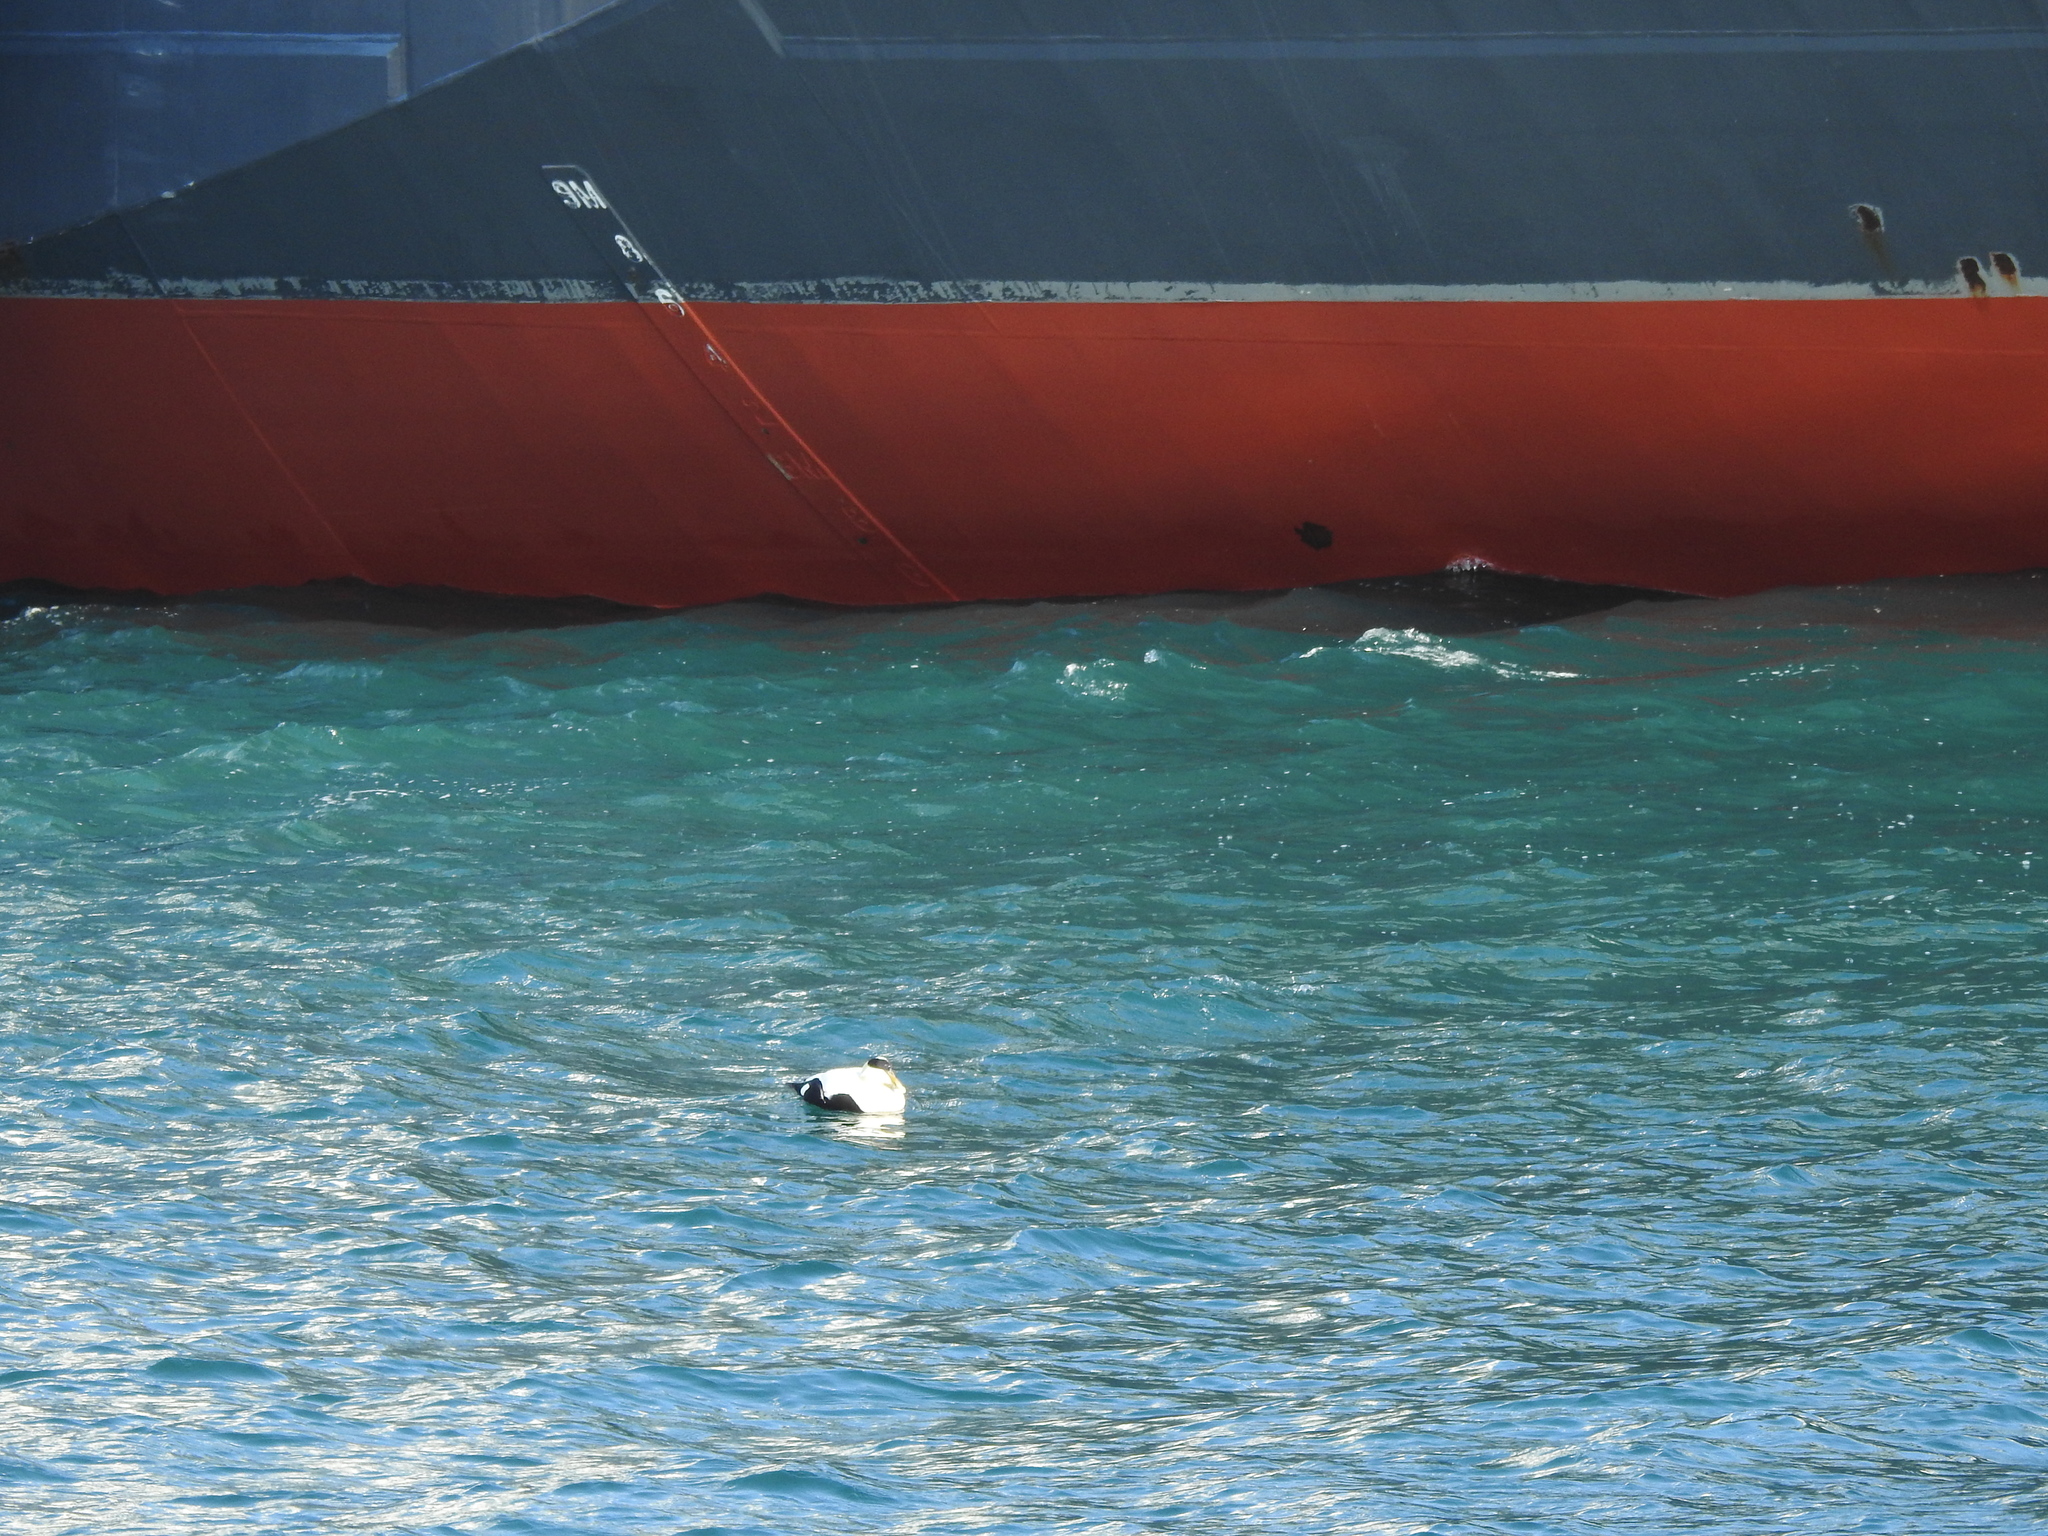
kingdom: Animalia
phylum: Chordata
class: Aves
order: Anseriformes
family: Anatidae
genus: Somateria
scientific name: Somateria mollissima
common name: Common eider
